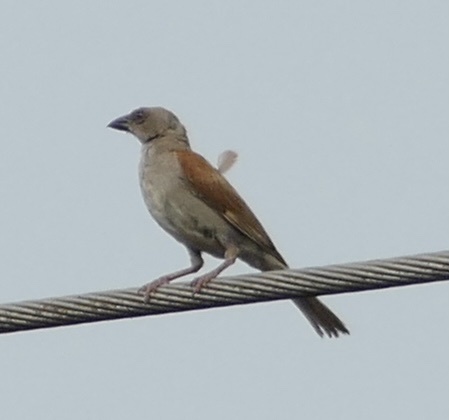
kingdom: Animalia
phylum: Chordata
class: Aves
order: Passeriformes
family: Passeridae
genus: Passer
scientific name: Passer griseus
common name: Northern grey-headed sparrow
